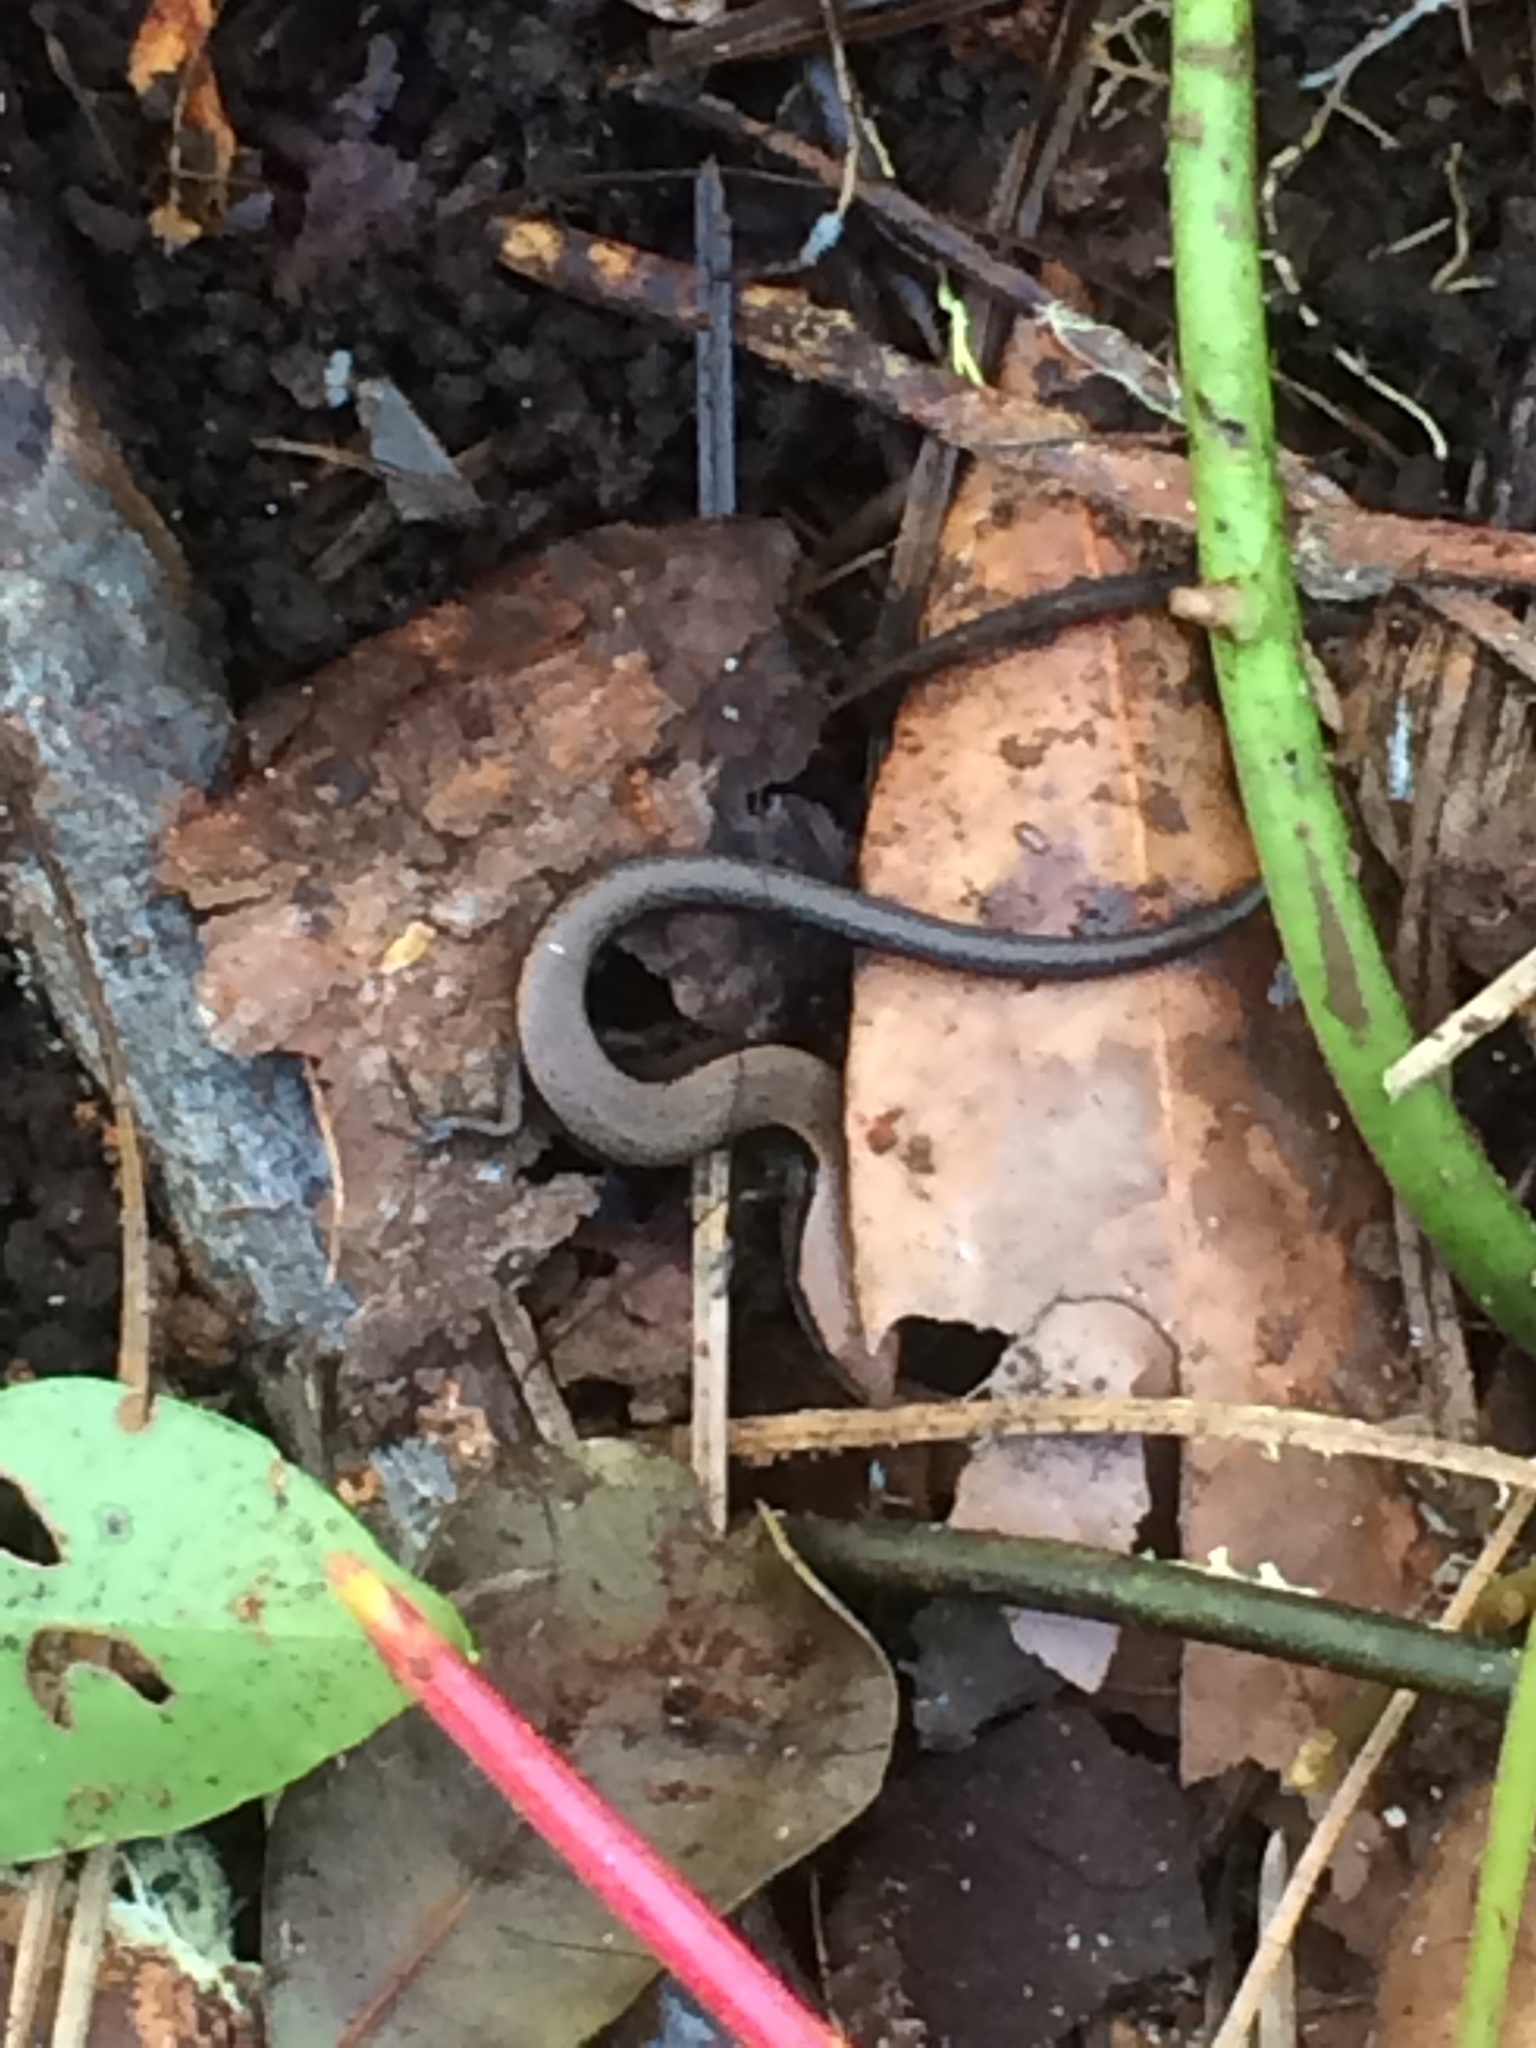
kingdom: Animalia
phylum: Chordata
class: Squamata
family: Scincidae
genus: Scincella
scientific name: Scincella lateralis
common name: Ground skink
